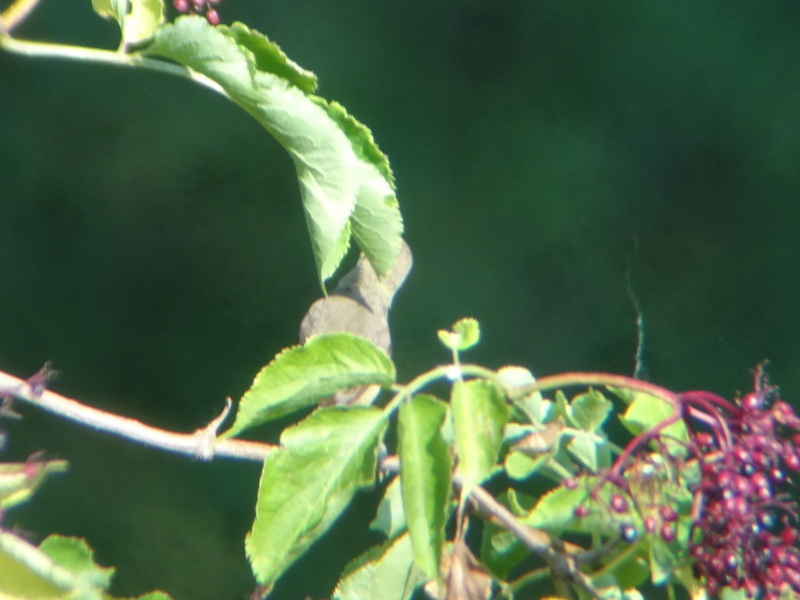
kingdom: Animalia
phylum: Chordata
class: Aves
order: Passeriformes
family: Acrocephalidae
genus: Hippolais
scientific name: Hippolais polyglotta
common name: Melodious warbler
